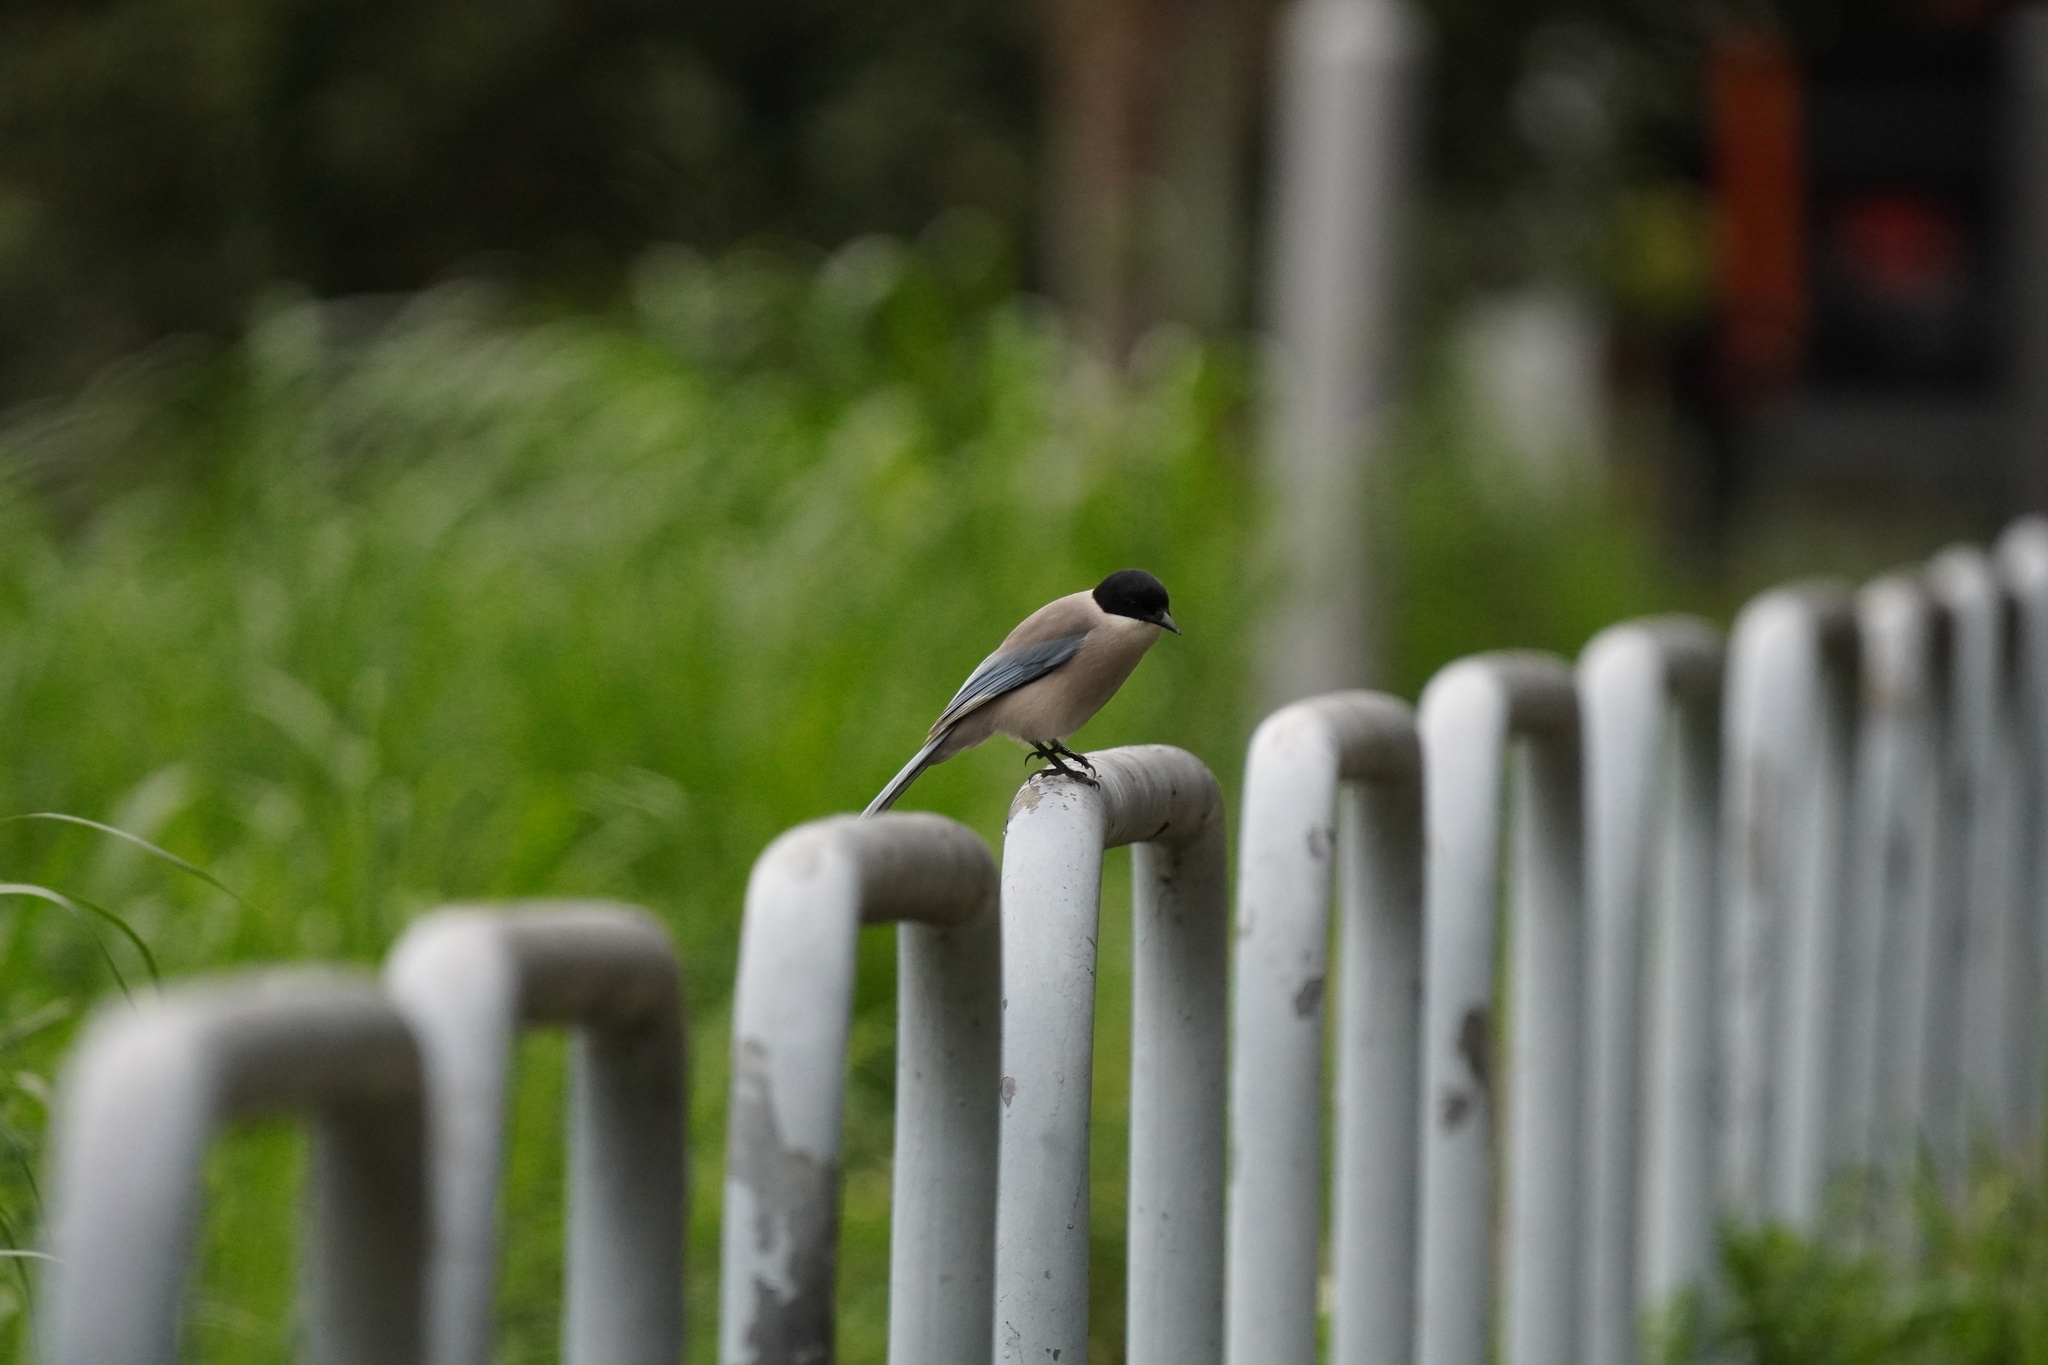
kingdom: Animalia
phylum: Chordata
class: Aves
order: Passeriformes
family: Corvidae
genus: Cyanopica
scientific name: Cyanopica cyanus
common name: Azure-winged magpie
